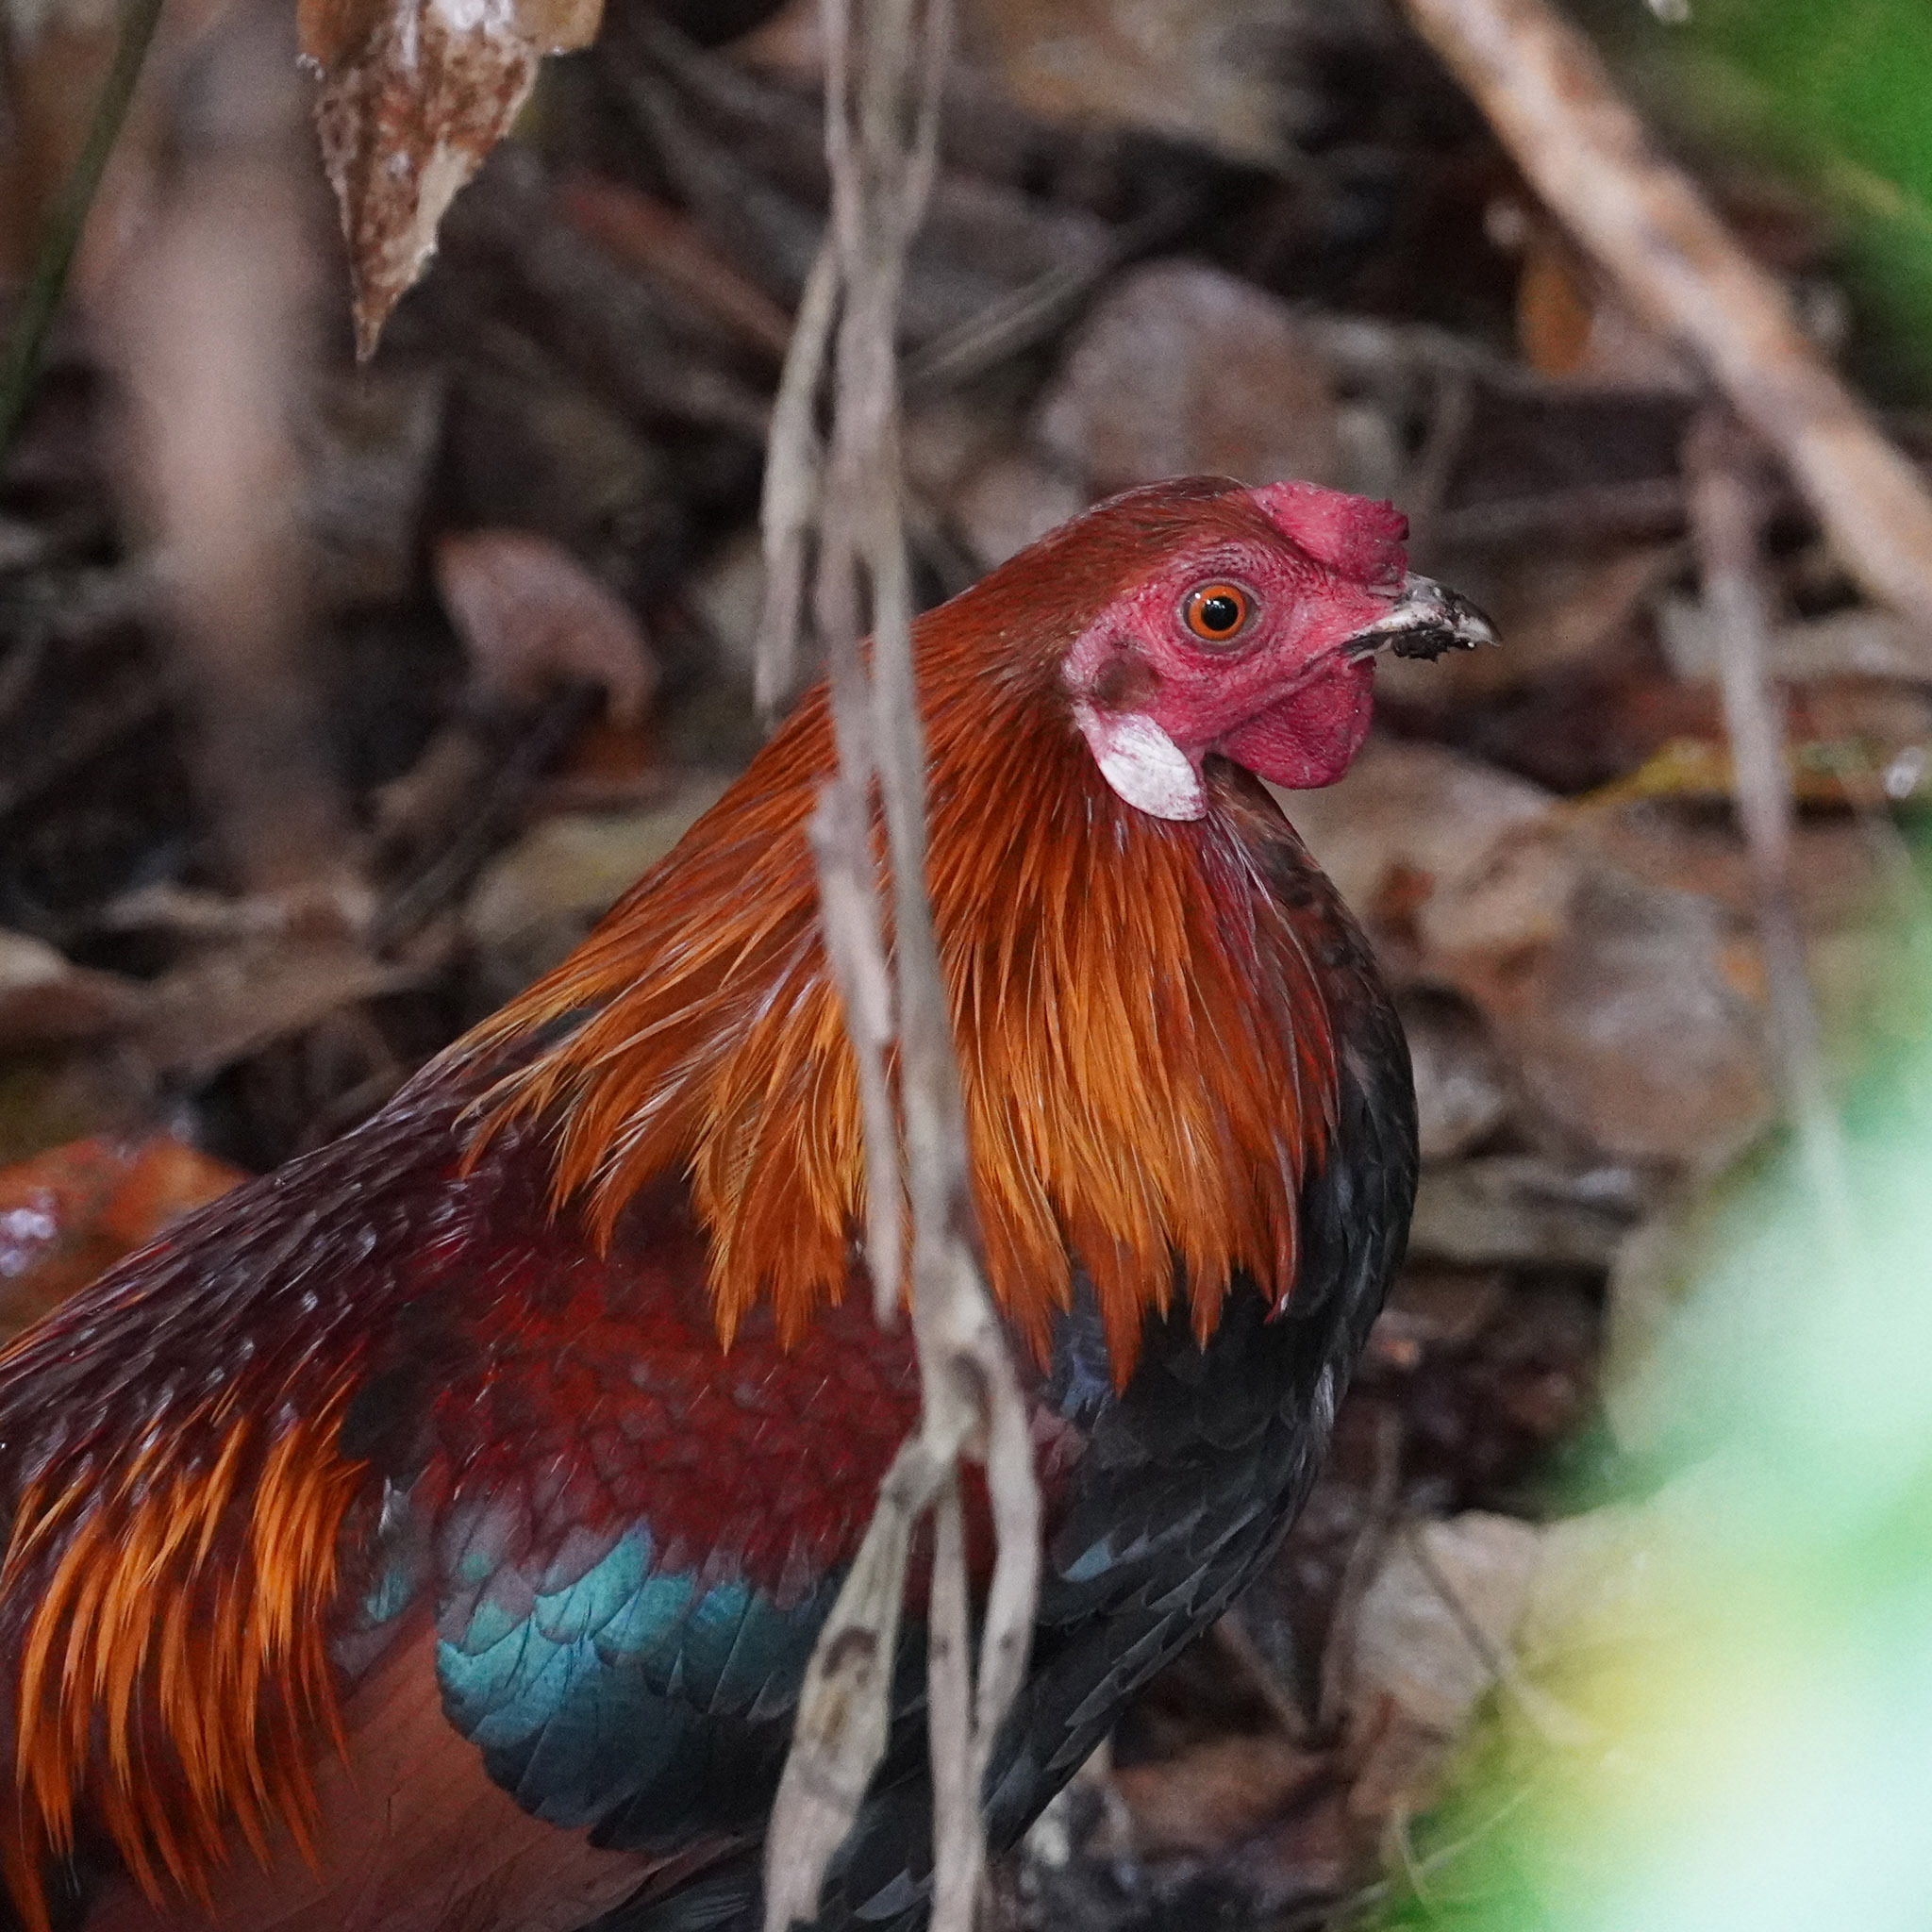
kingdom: Animalia
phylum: Chordata
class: Aves
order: Galliformes
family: Phasianidae
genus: Gallus
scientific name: Gallus gallus
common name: Red junglefowl
